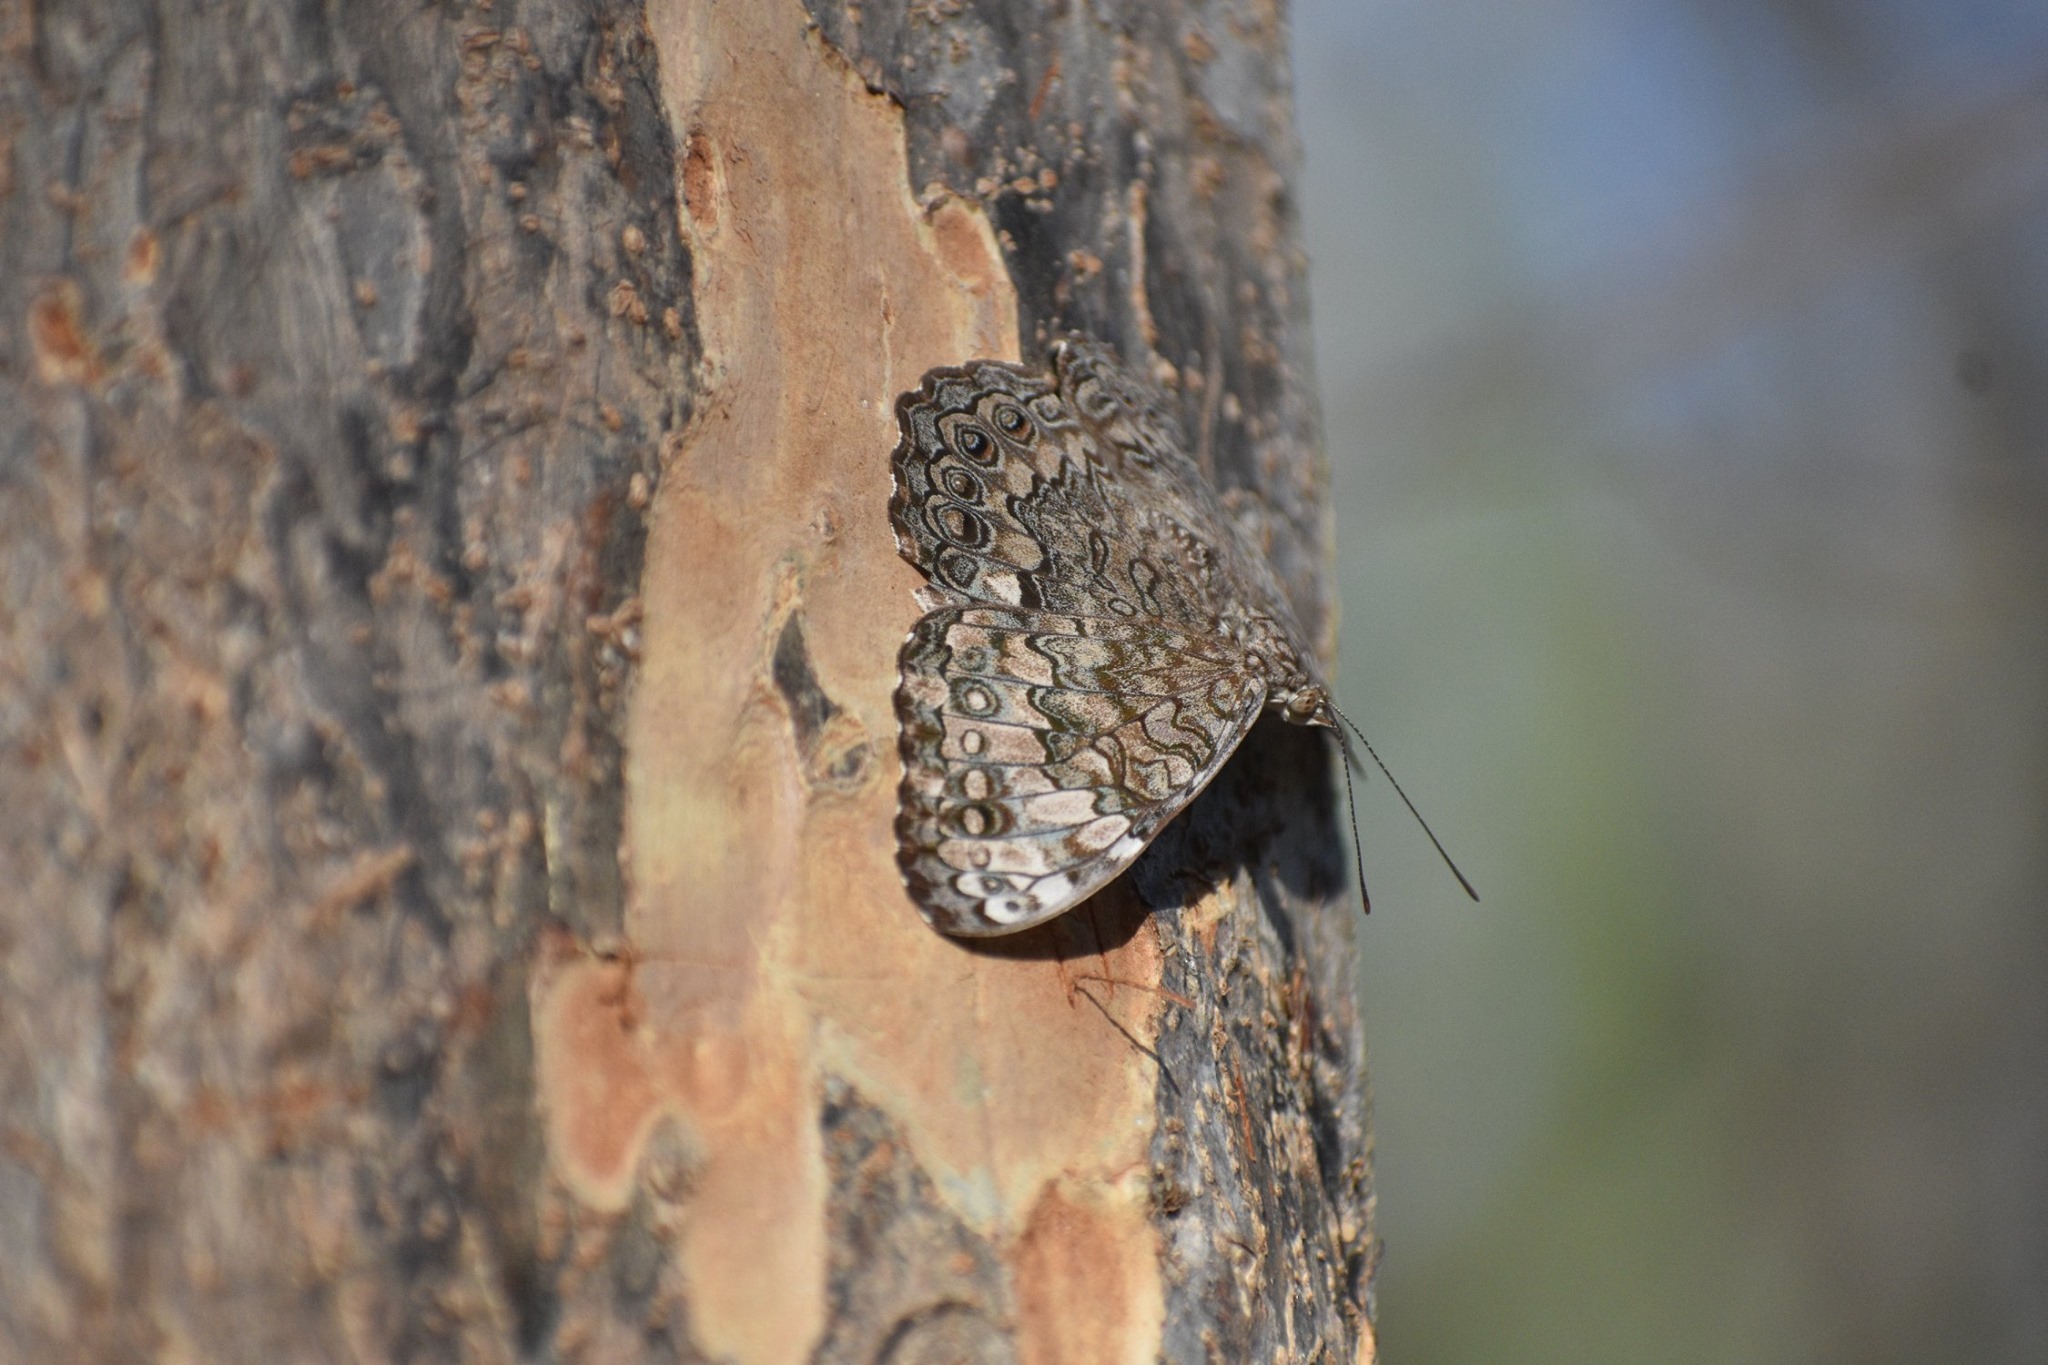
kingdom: Animalia
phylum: Arthropoda
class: Insecta
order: Lepidoptera
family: Nymphalidae
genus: Hamadryas
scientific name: Hamadryas februa
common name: Gray cracker
